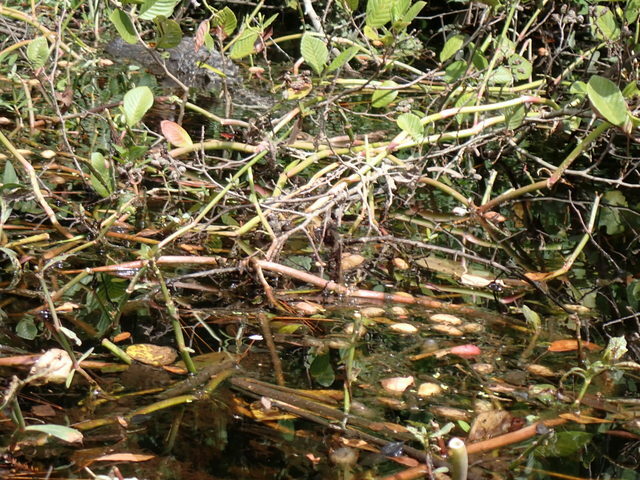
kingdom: Plantae
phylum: Tracheophyta
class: Magnoliopsida
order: Caryophyllales
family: Amaranthaceae
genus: Alternanthera
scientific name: Alternanthera philoxeroides
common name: Alligatorweed
